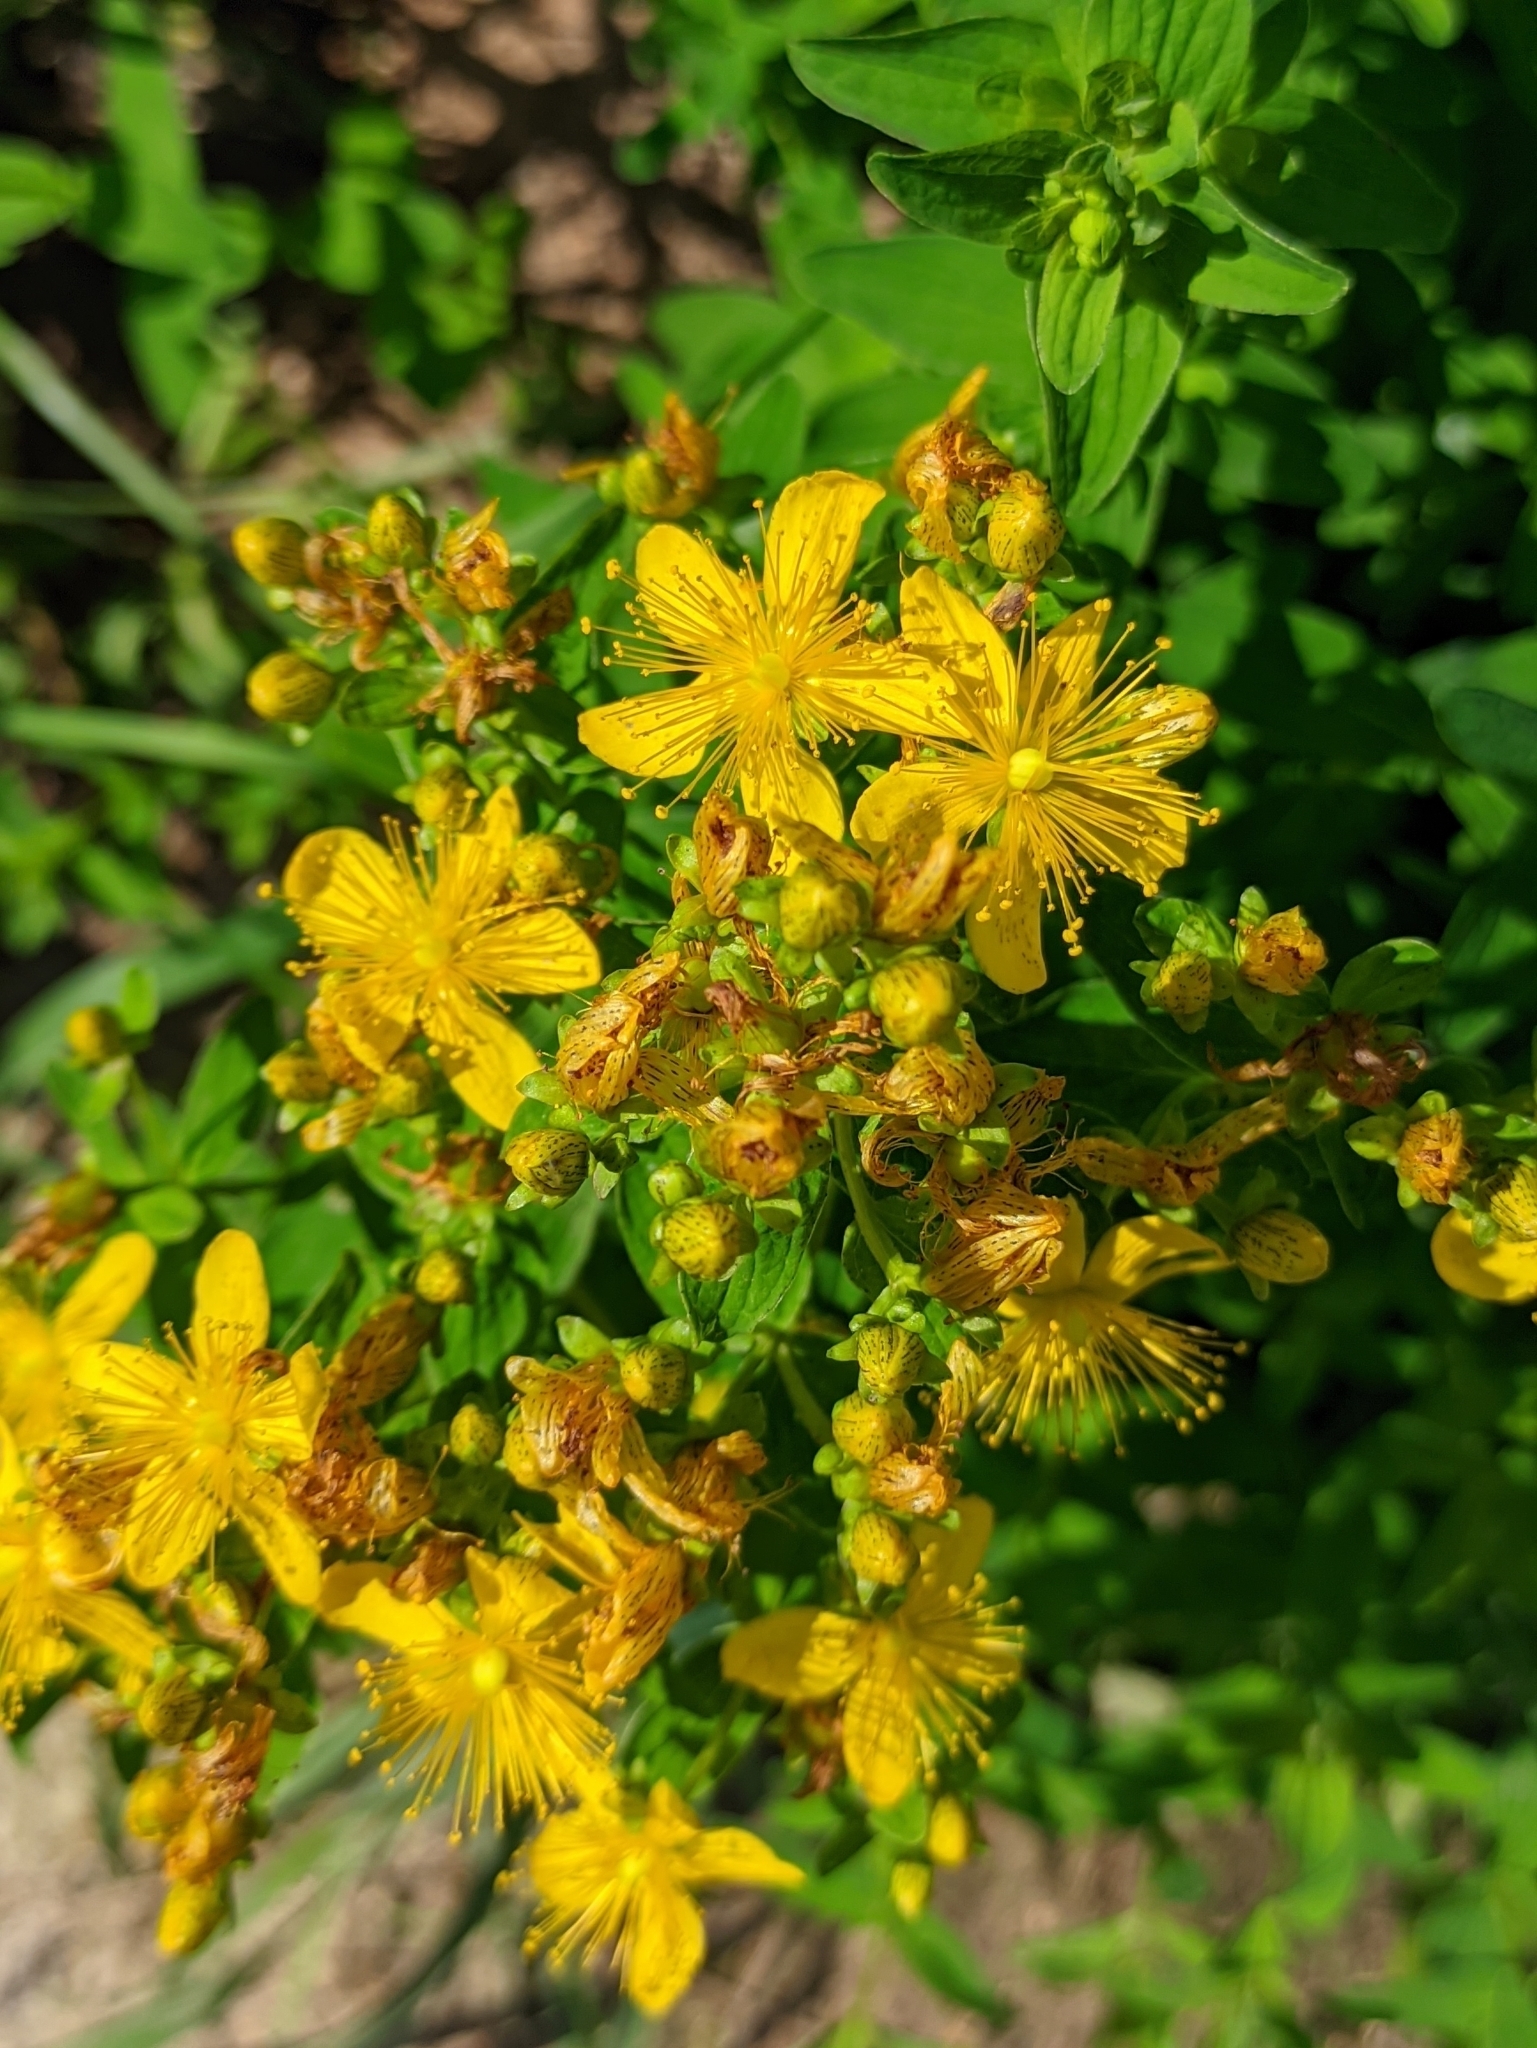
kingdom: Plantae
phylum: Tracheophyta
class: Magnoliopsida
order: Malpighiales
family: Hypericaceae
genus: Hypericum
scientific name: Hypericum maculatum
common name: Imperforate st. john's-wort
